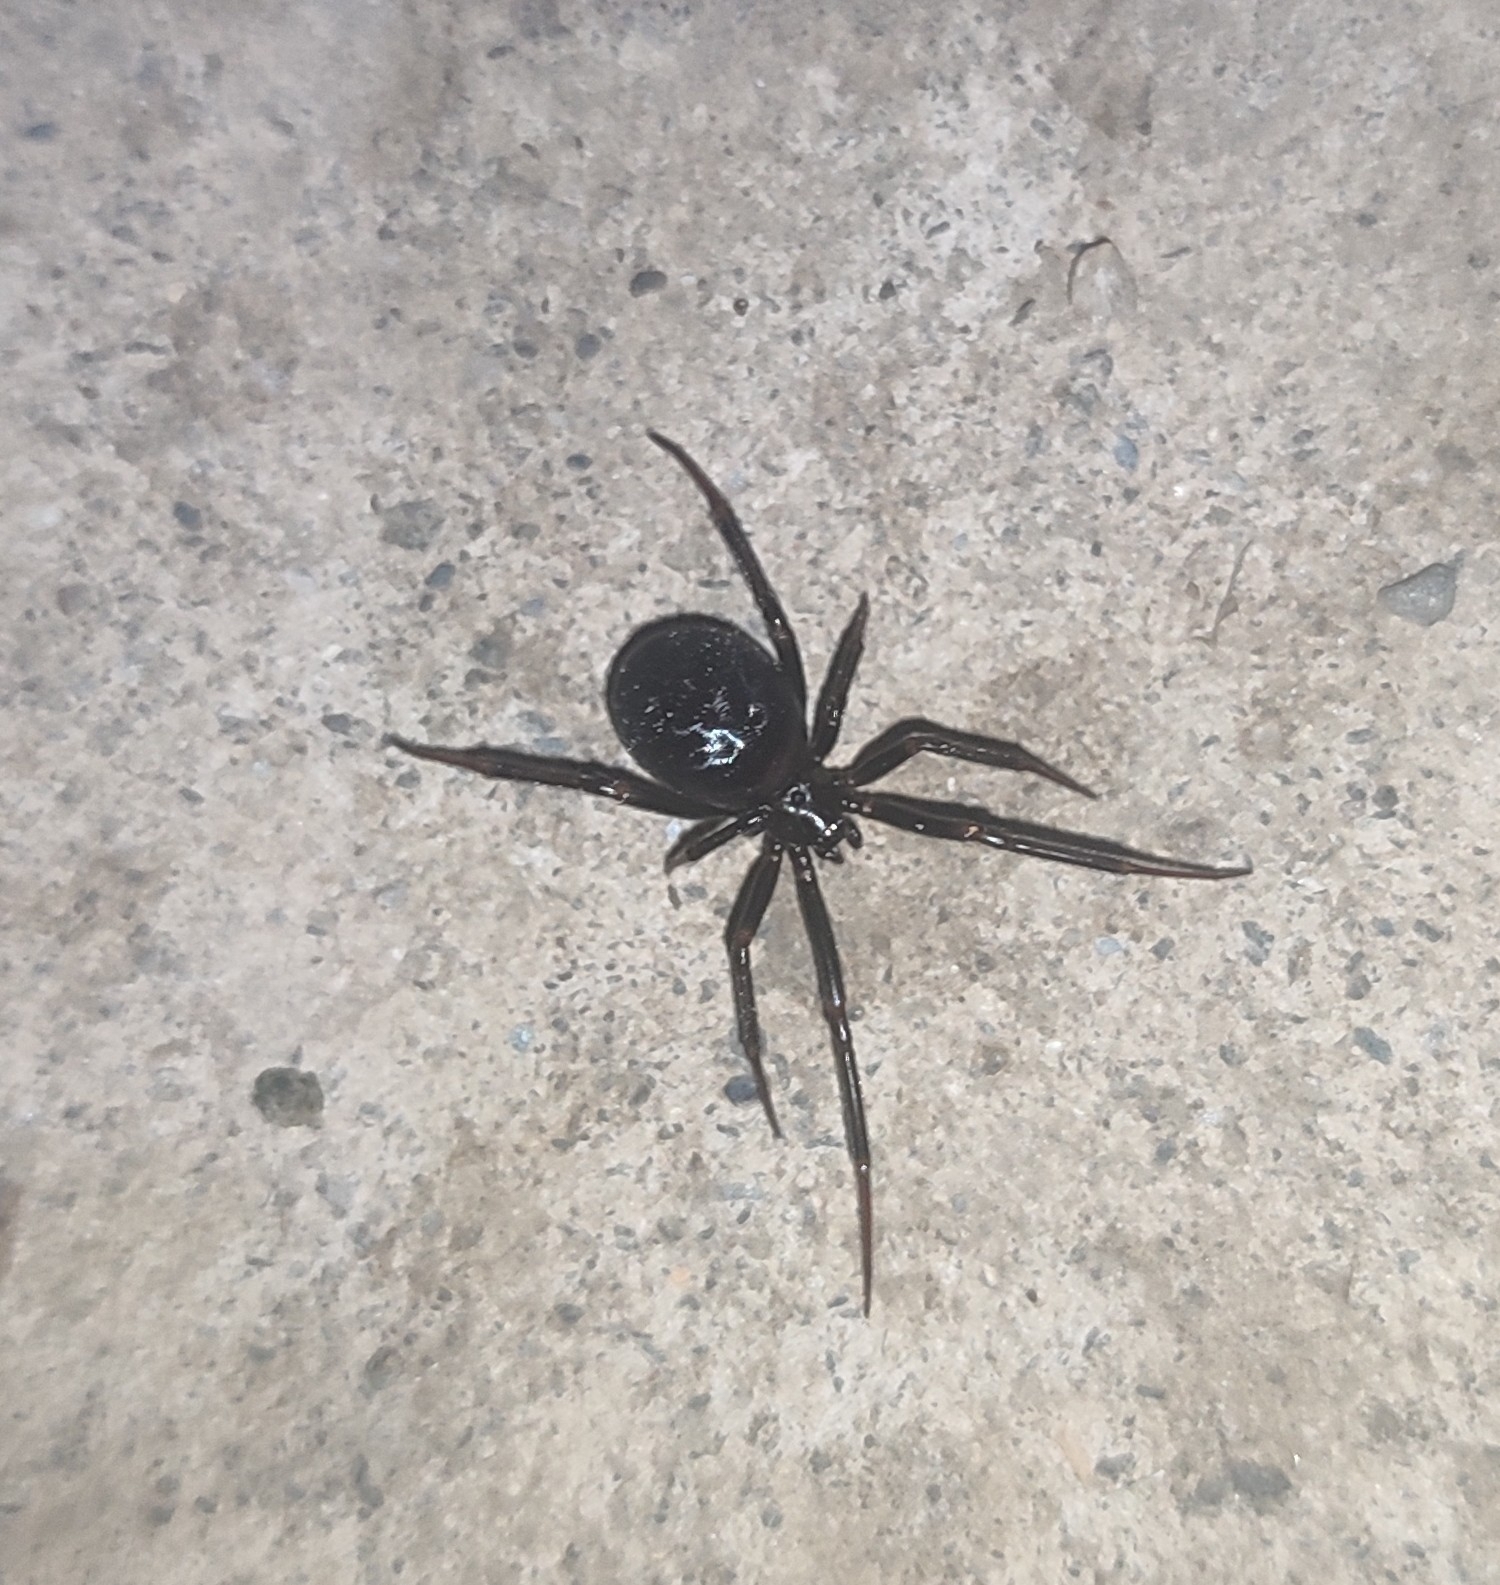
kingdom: Animalia
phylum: Arthropoda
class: Arachnida
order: Araneae
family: Theridiidae
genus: Steatoda
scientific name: Steatoda paykulliana
